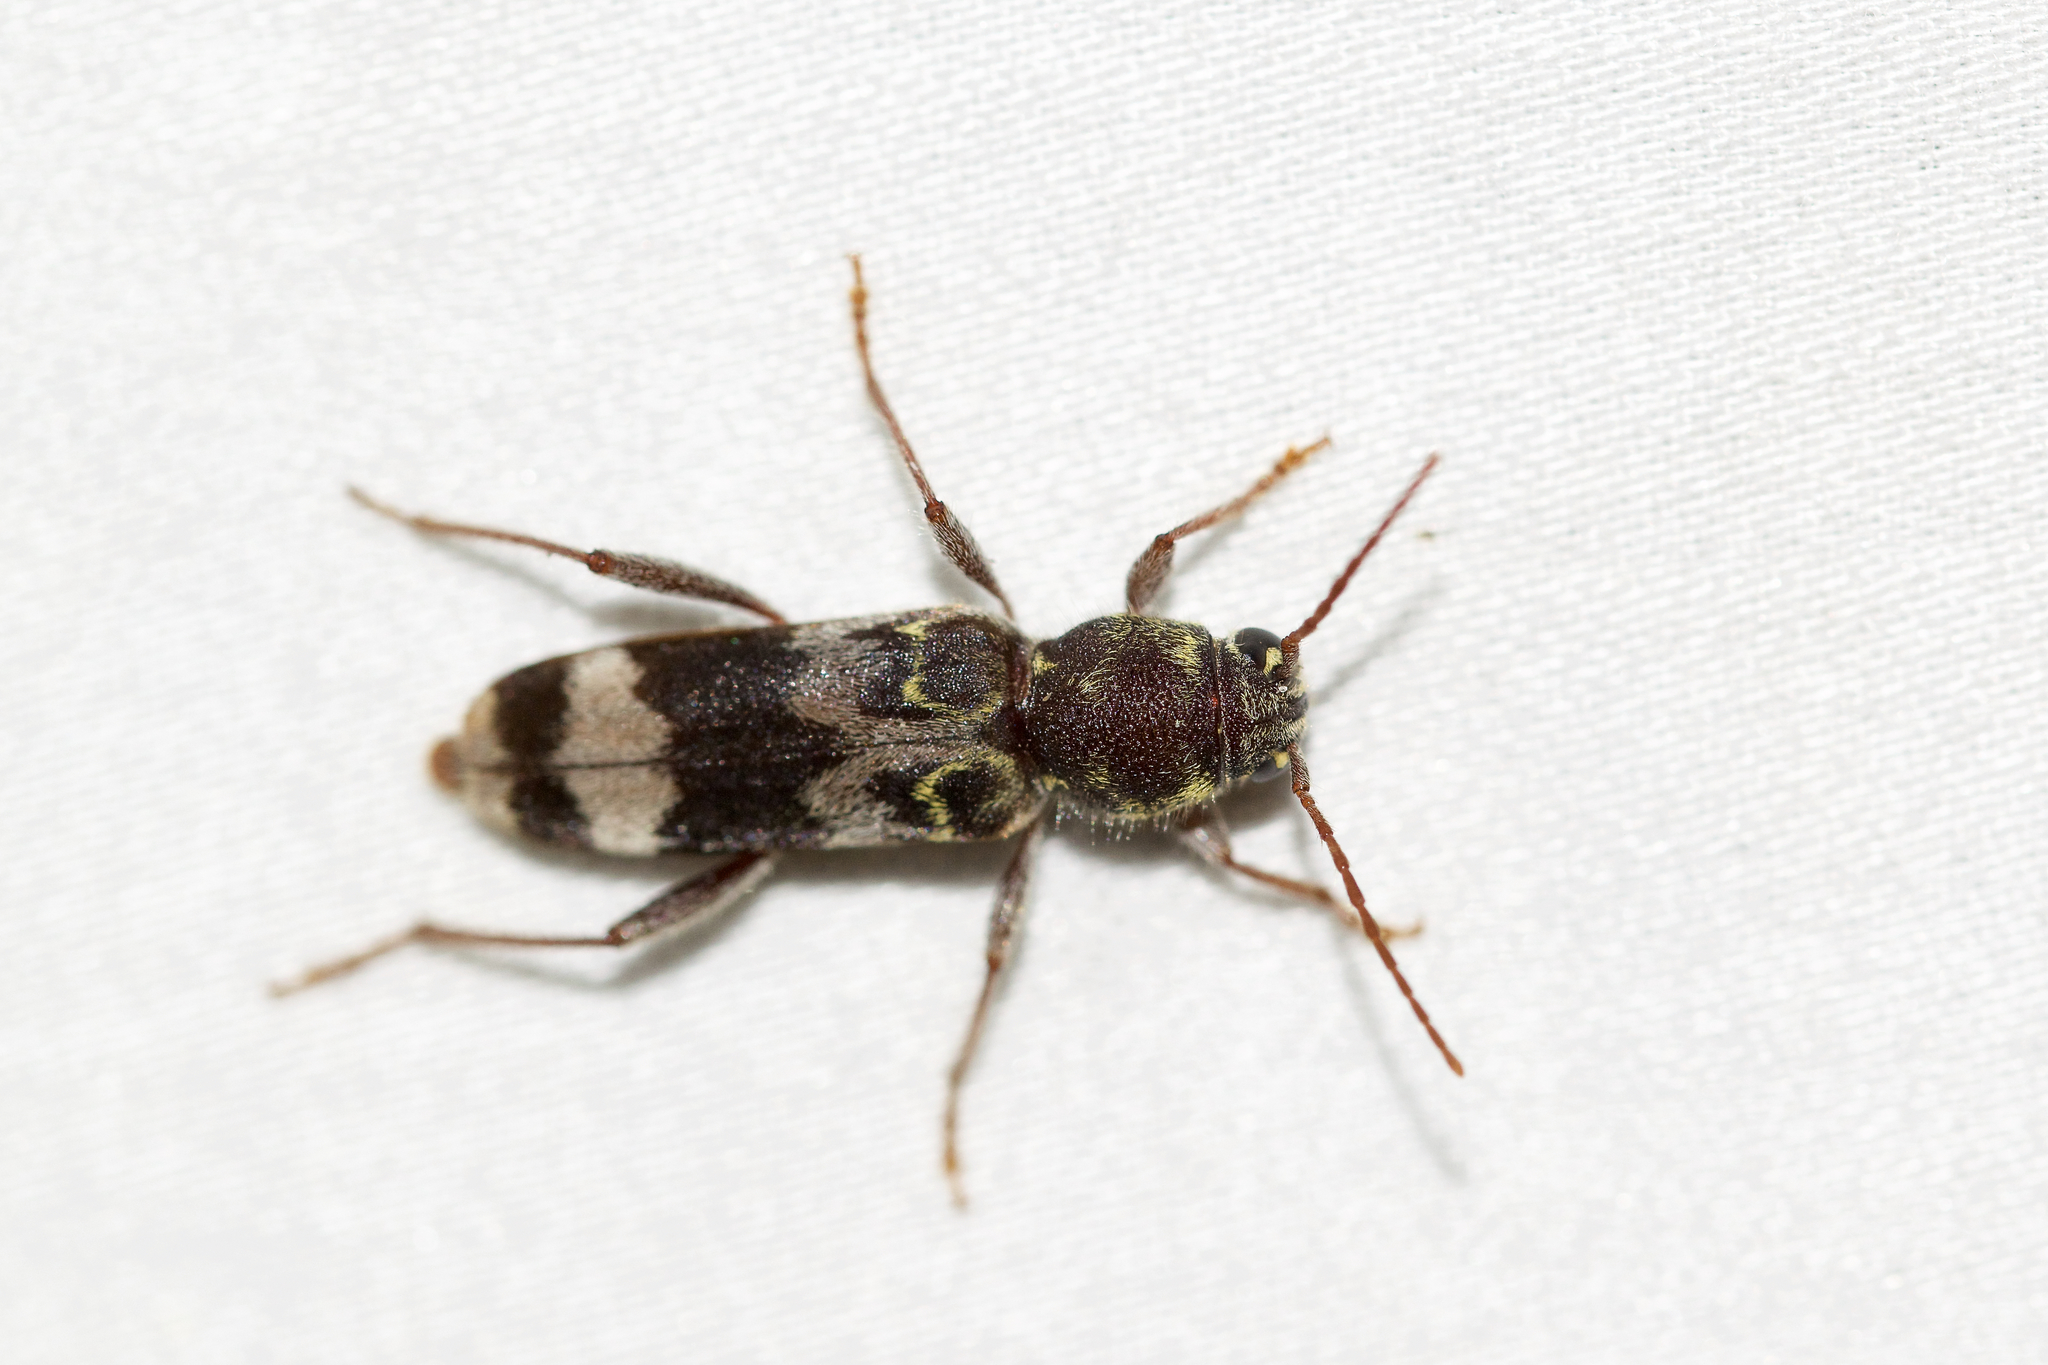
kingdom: Animalia
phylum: Arthropoda
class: Insecta
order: Coleoptera
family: Cerambycidae
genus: Xylotrechus
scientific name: Xylotrechus colonus
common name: Long-horned beetle
